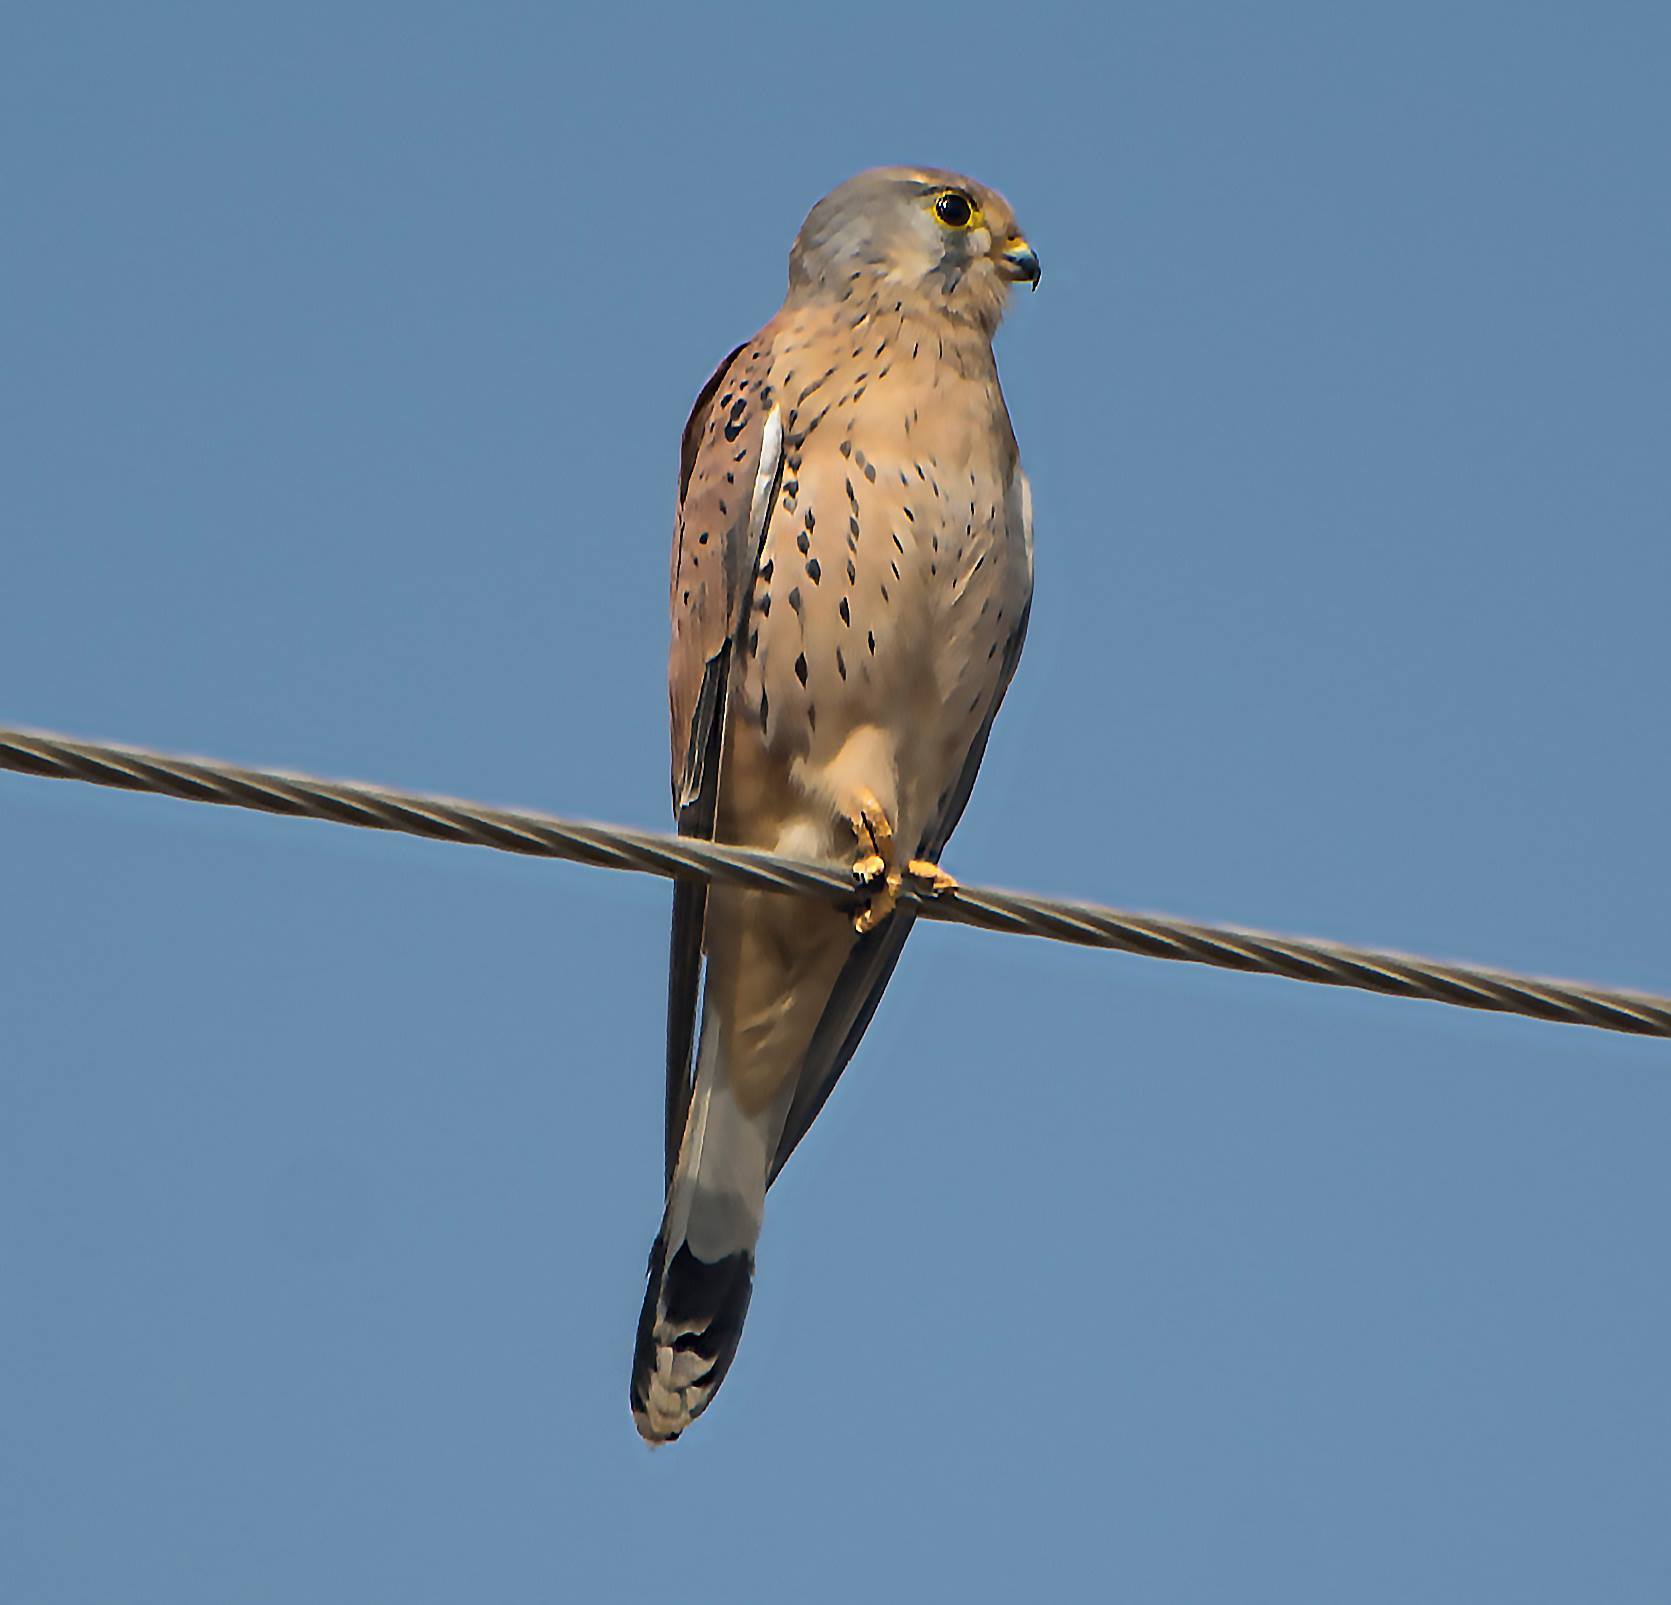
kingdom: Animalia
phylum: Chordata
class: Aves
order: Falconiformes
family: Falconidae
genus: Falco
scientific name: Falco tinnunculus
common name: Common kestrel
